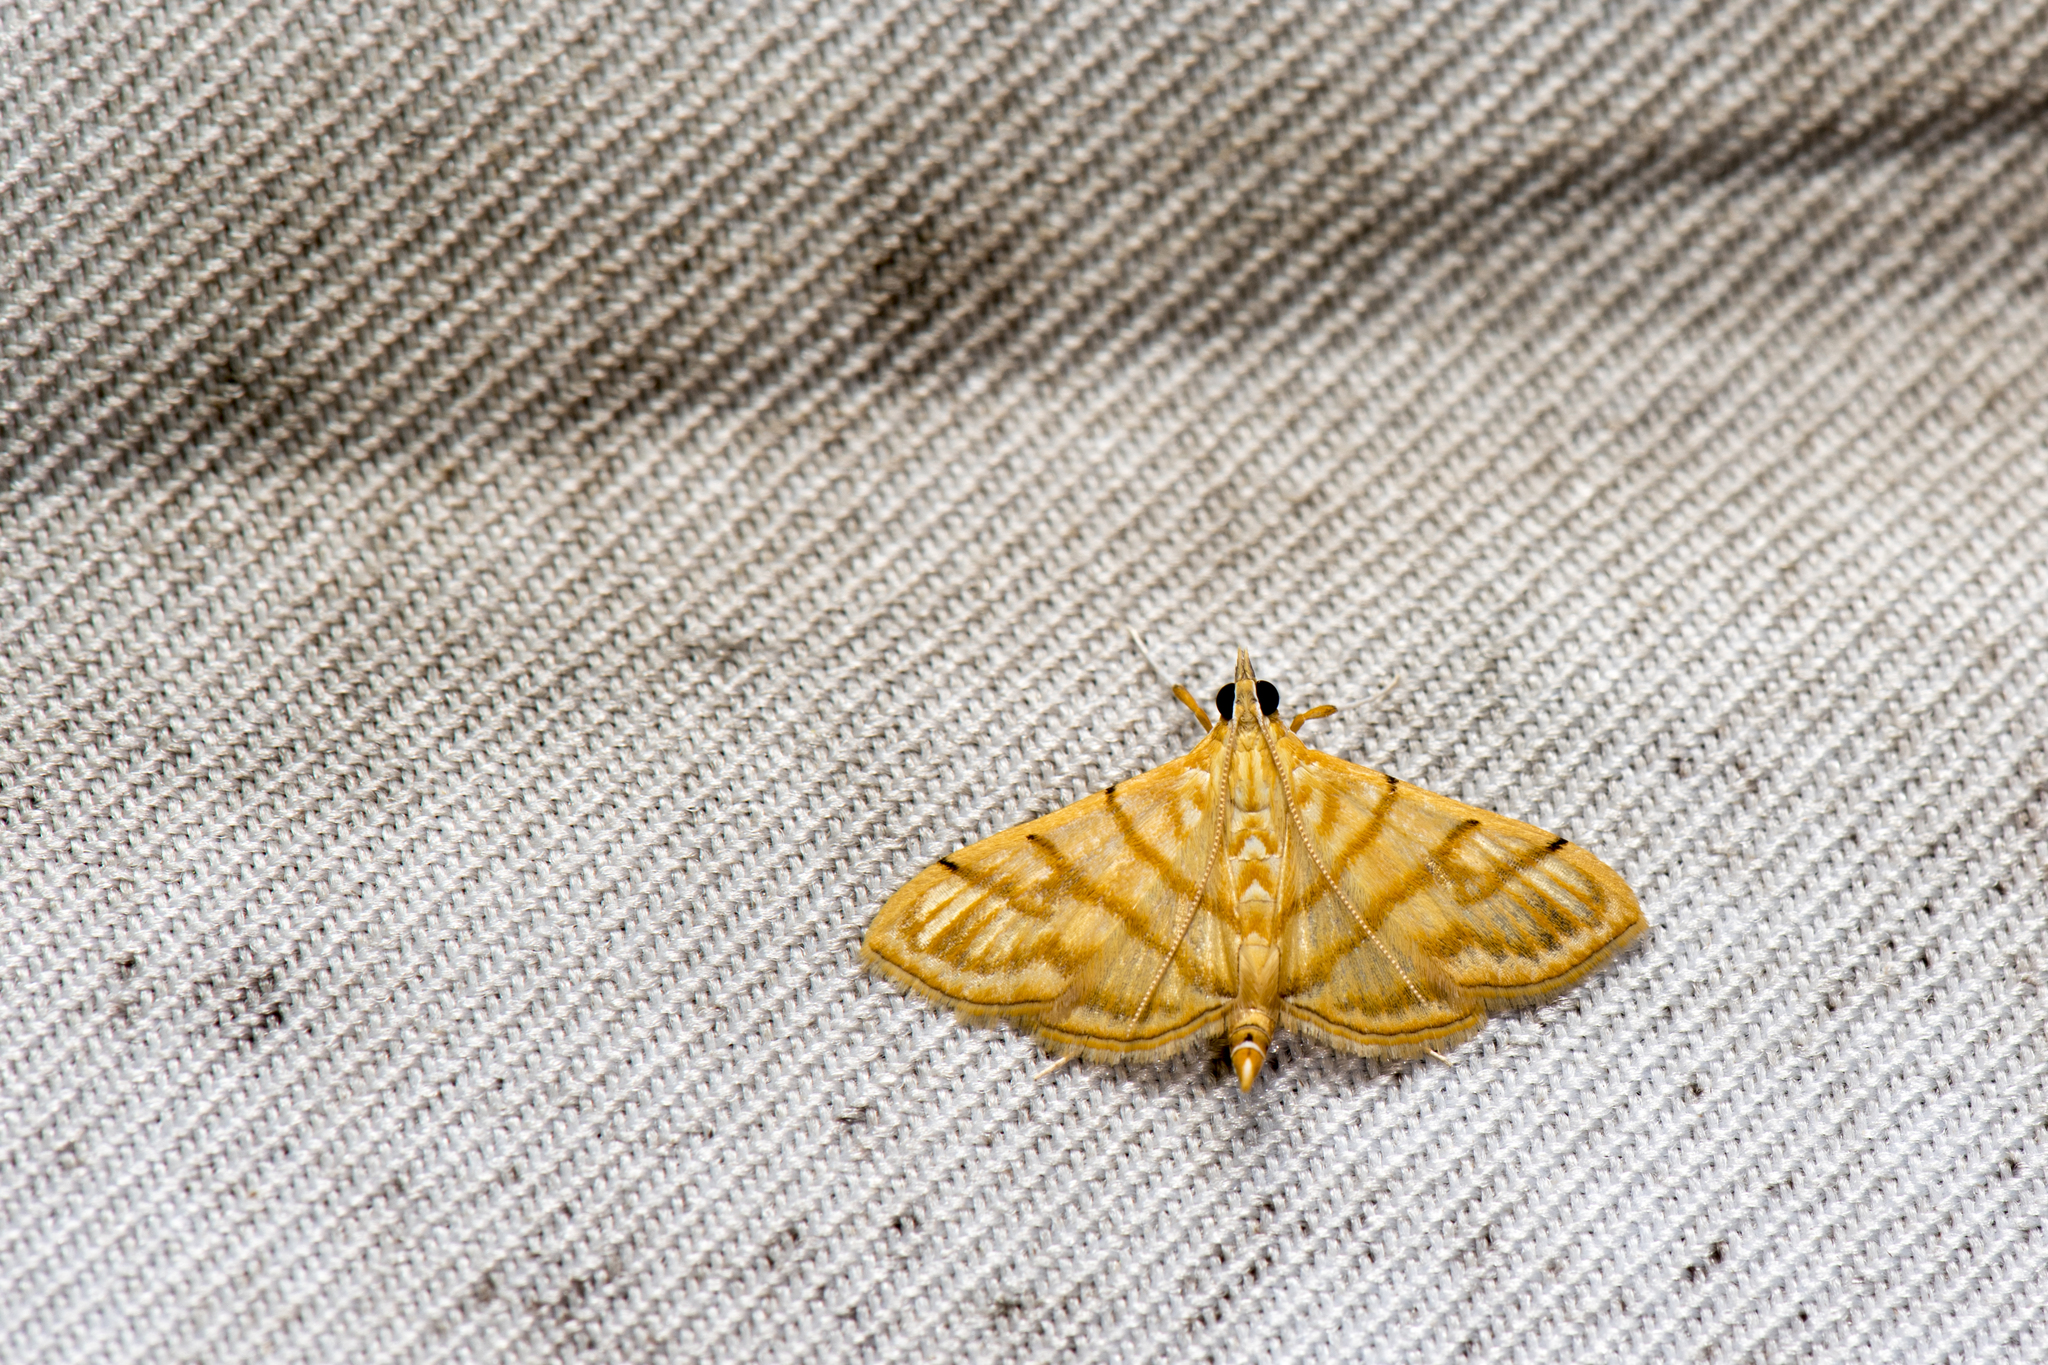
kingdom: Animalia
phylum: Arthropoda
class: Insecta
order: Lepidoptera
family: Crambidae
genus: Pagyda
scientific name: Pagyda botydalis
